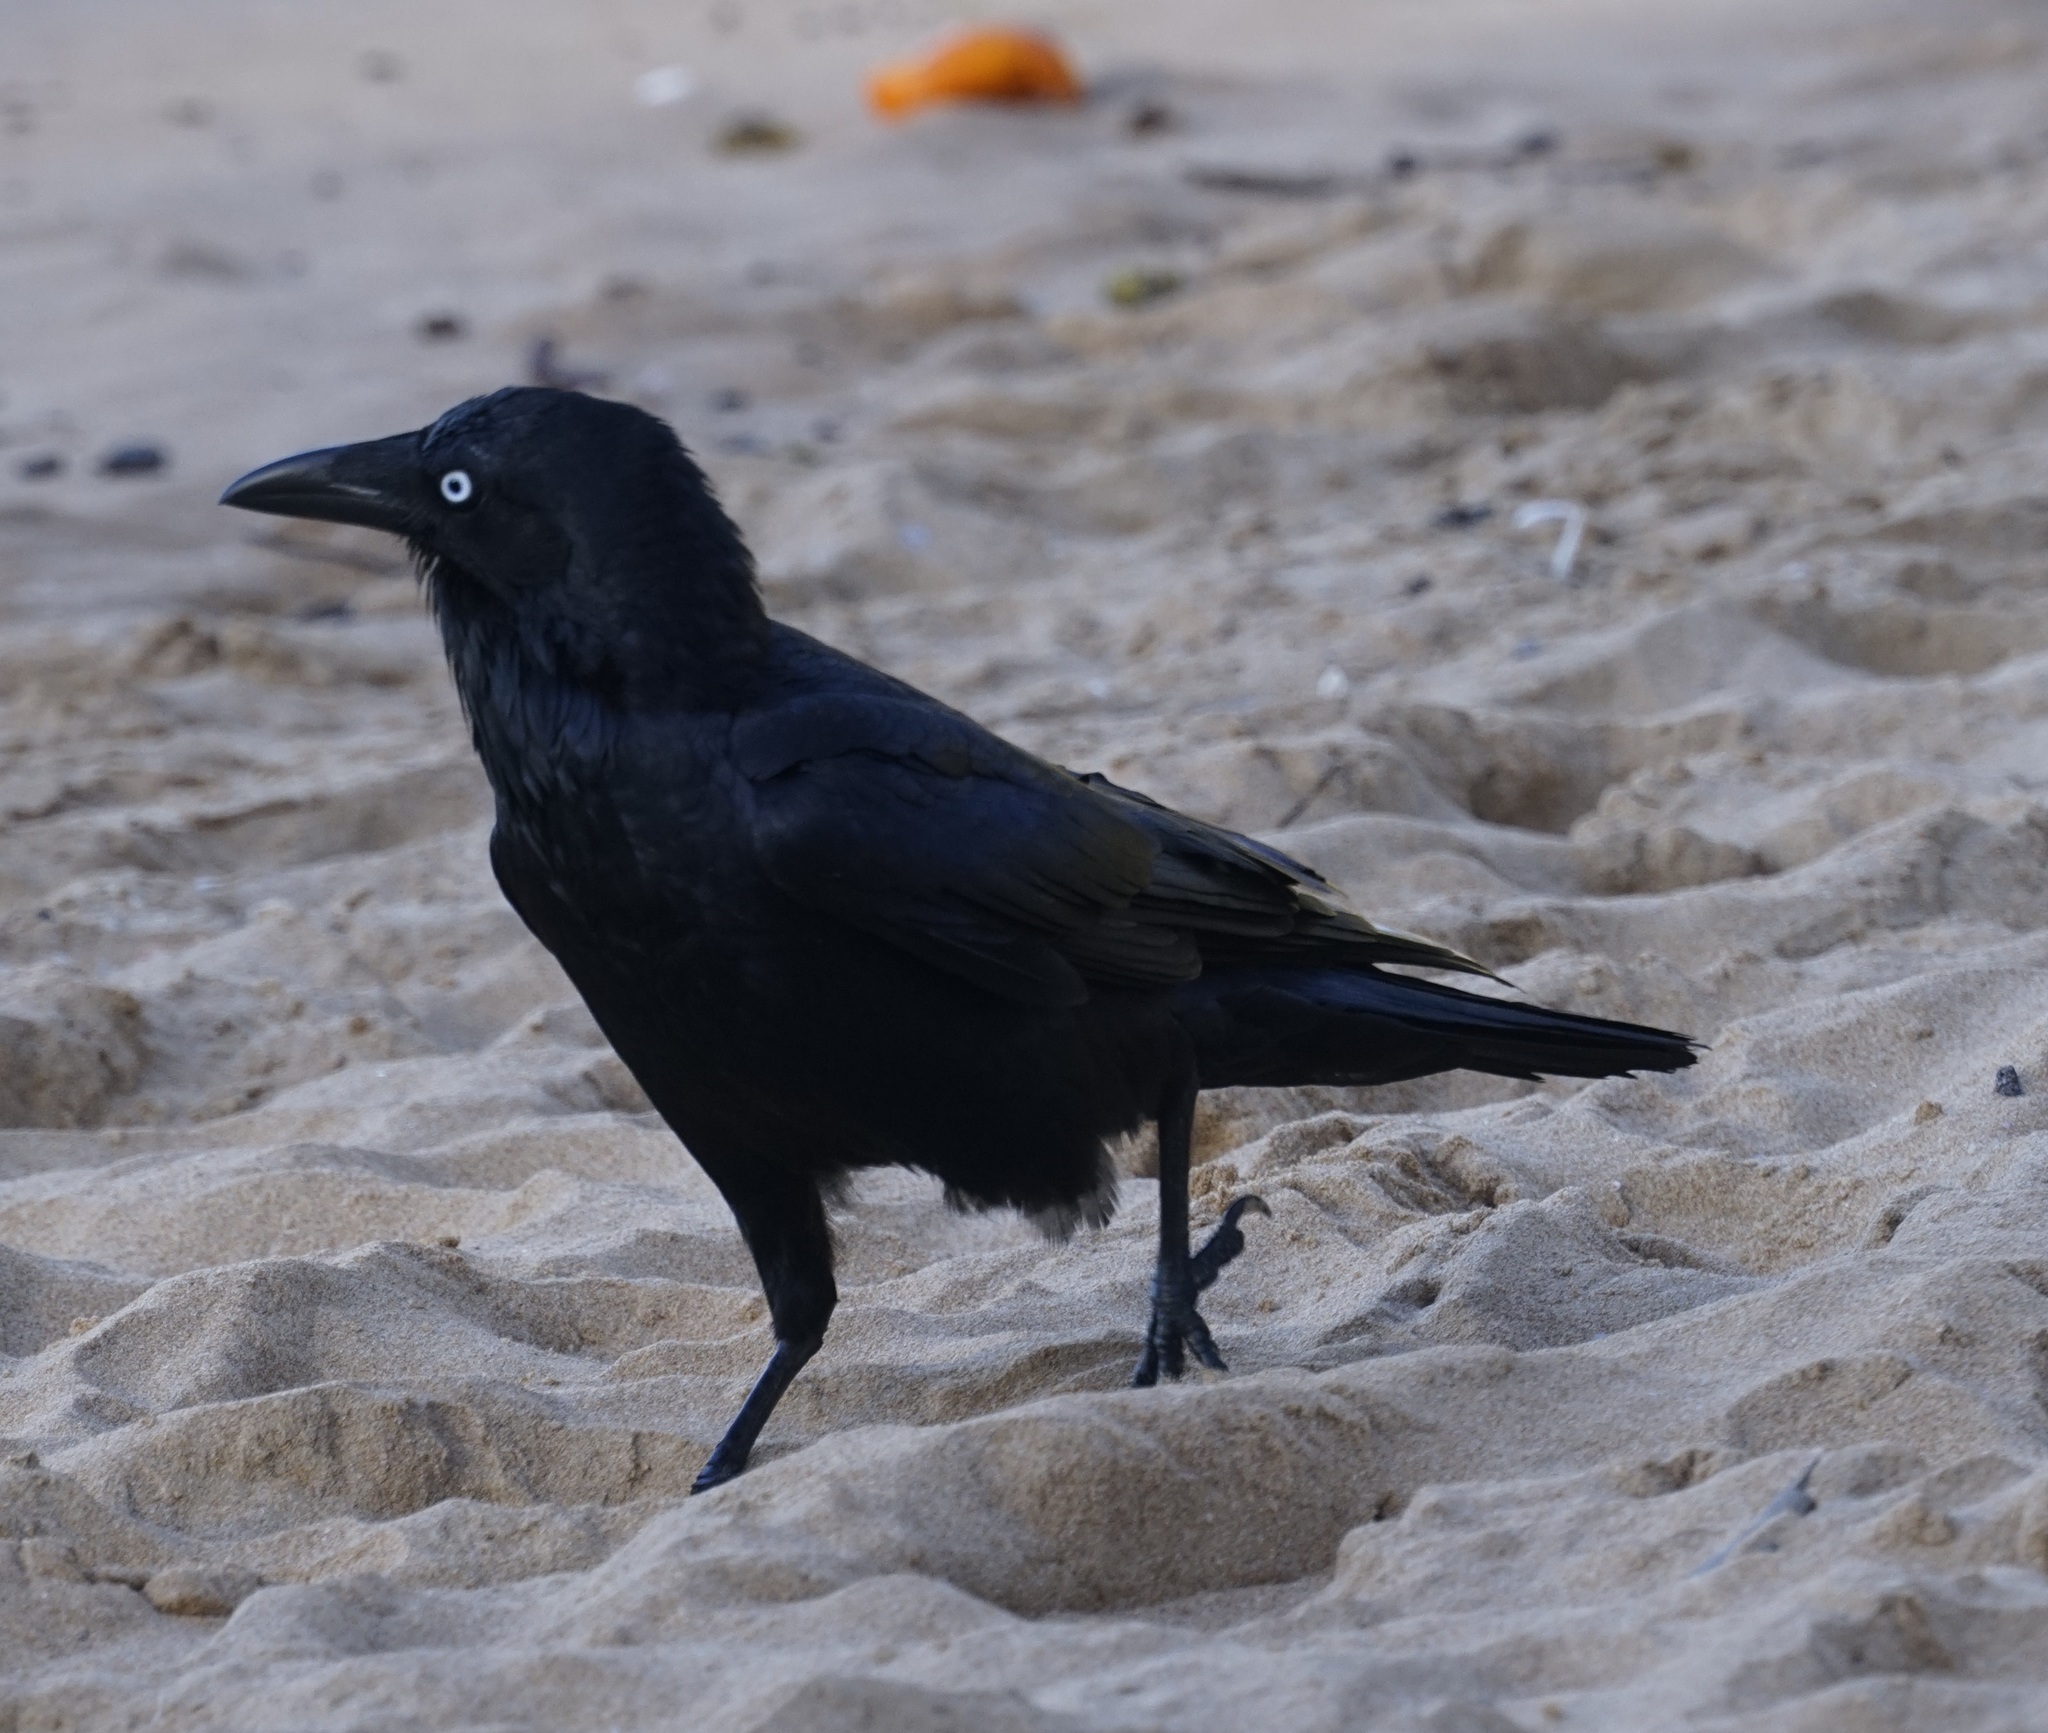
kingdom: Animalia
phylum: Chordata
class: Aves
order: Passeriformes
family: Corvidae
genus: Corvus
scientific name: Corvus coronoides
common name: Australian raven
